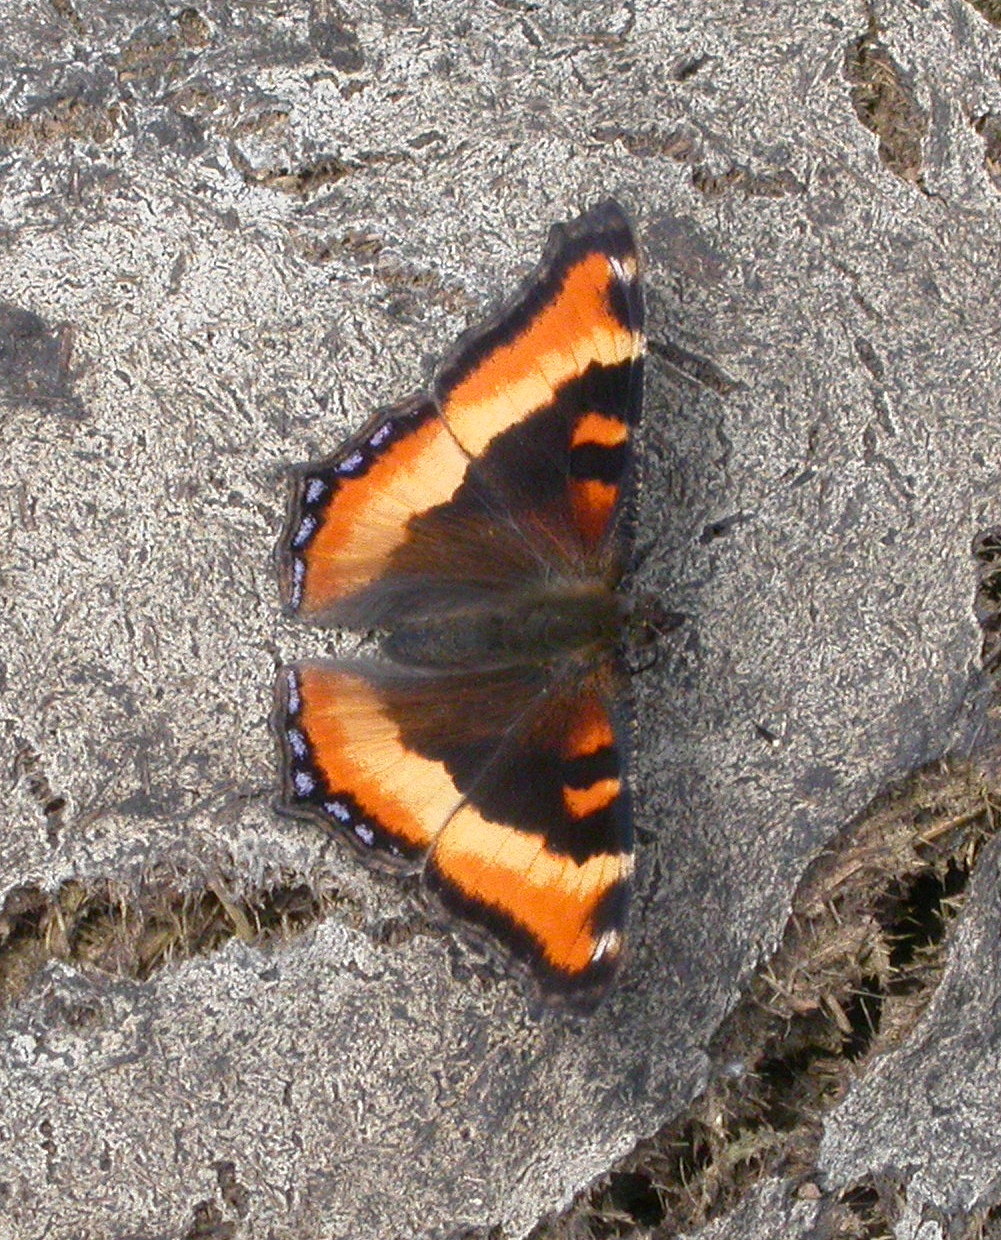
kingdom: Animalia
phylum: Arthropoda
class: Insecta
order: Lepidoptera
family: Nymphalidae
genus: Aglais
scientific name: Aglais milberti
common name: Milbert's tortoiseshell
